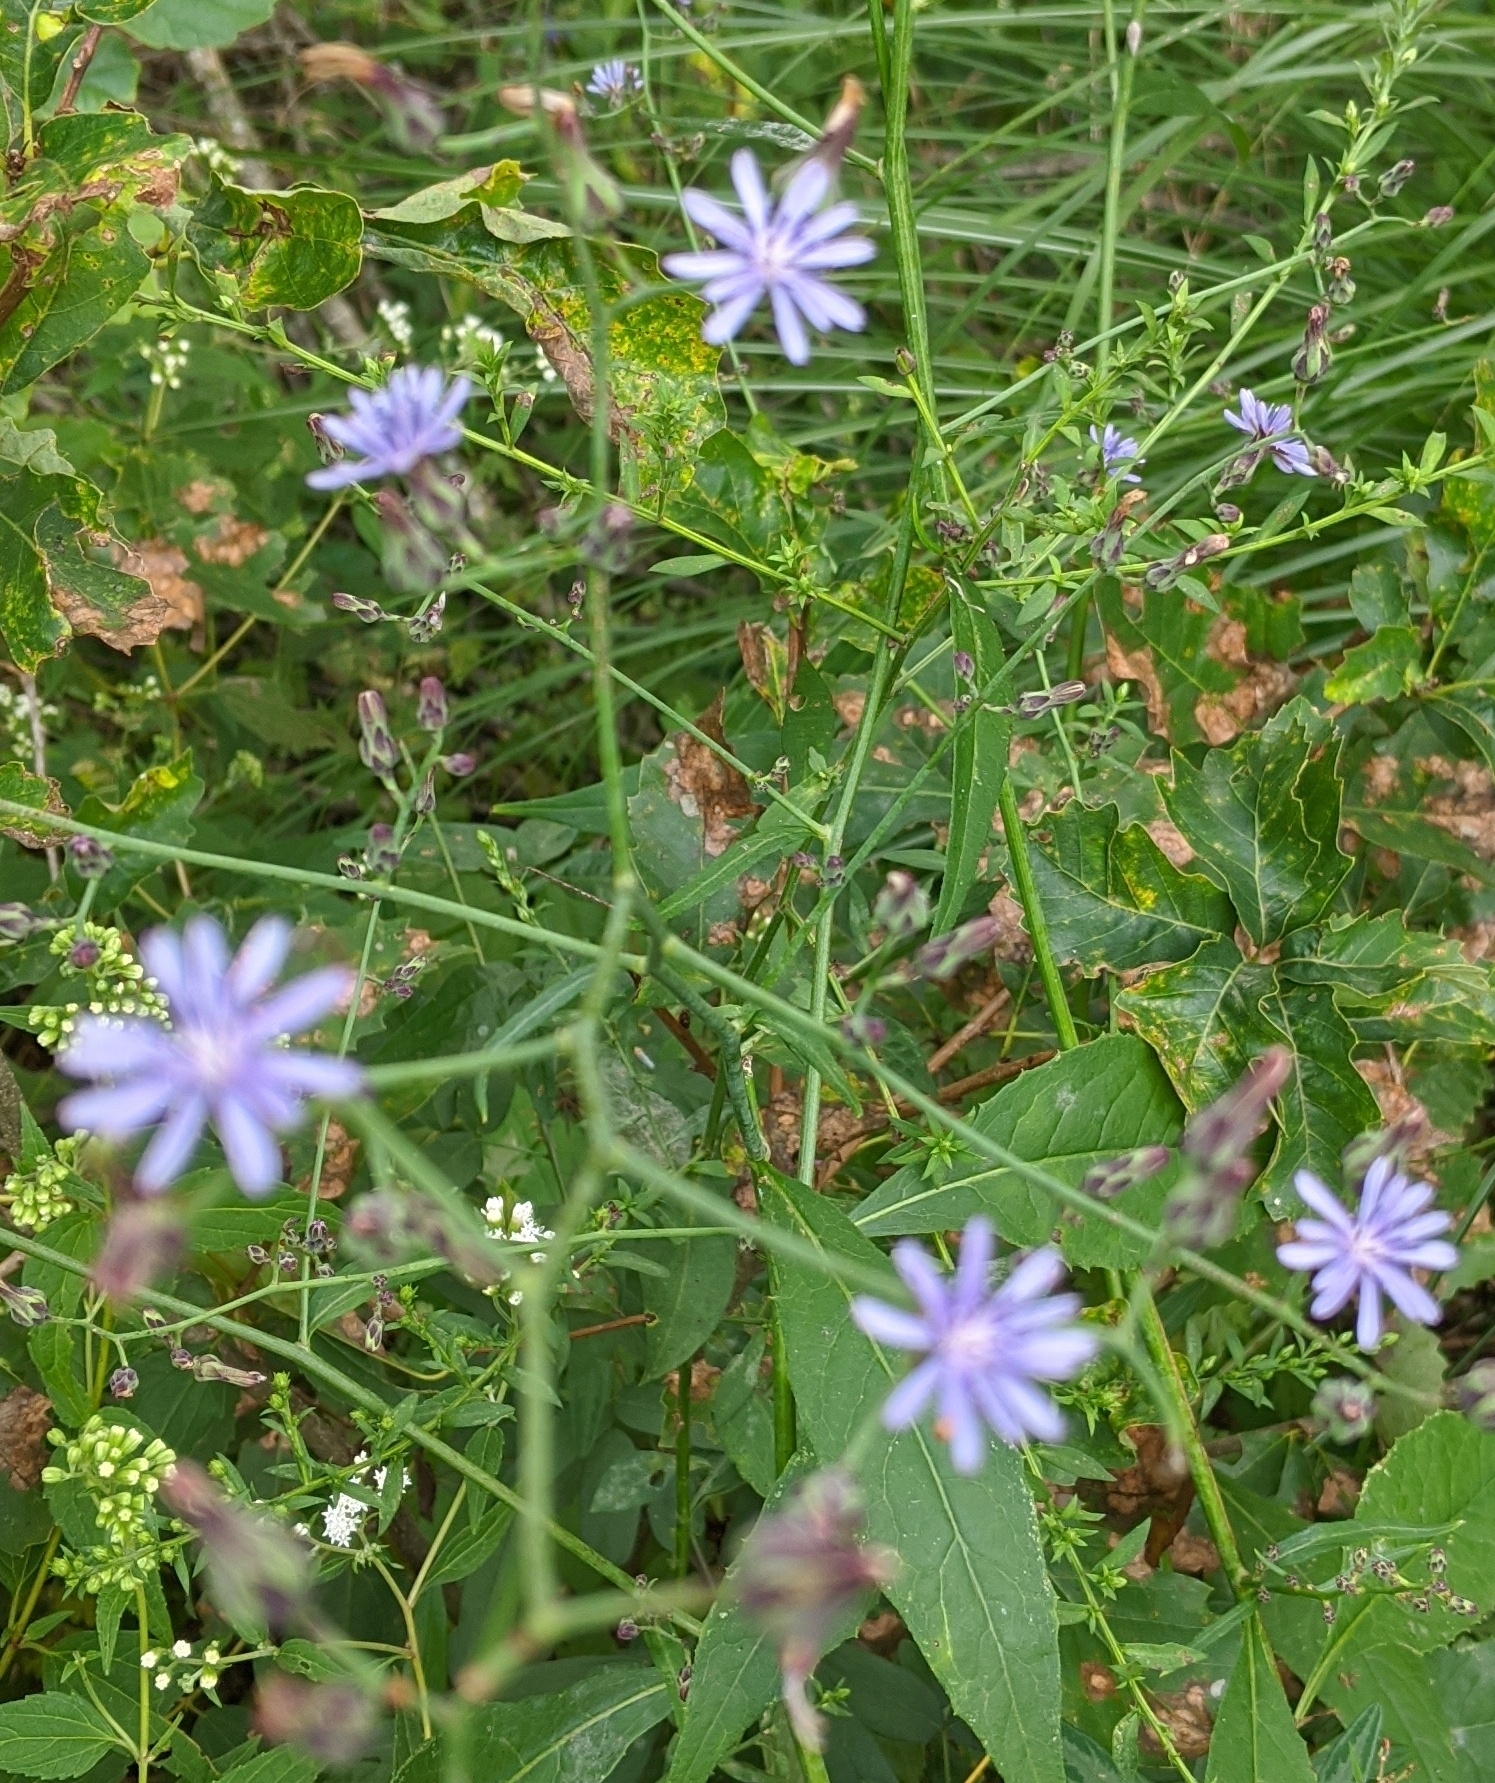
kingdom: Plantae
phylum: Tracheophyta
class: Magnoliopsida
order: Asterales
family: Asteraceae
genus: Lactuca
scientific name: Lactuca floridana
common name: Woodland lettuce
